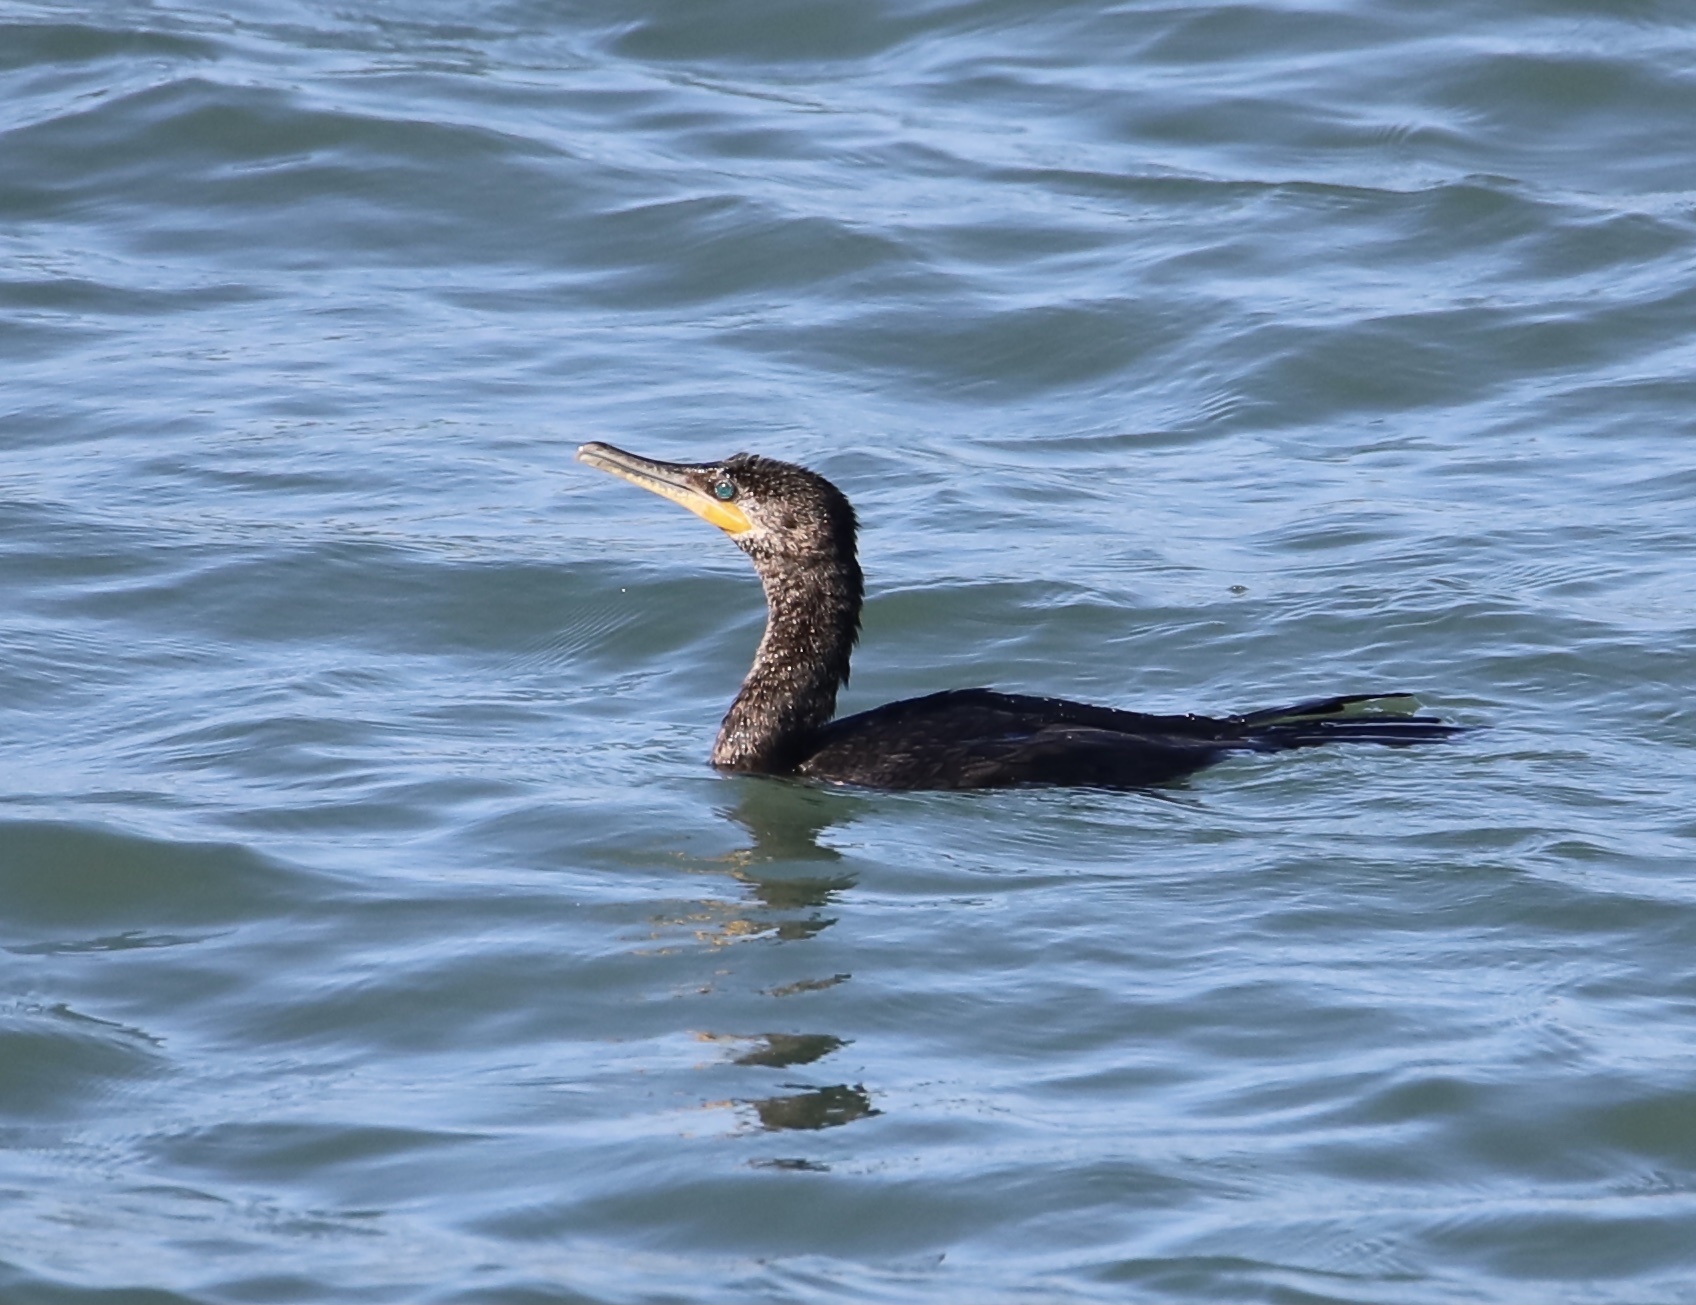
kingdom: Animalia
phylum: Chordata
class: Aves
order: Suliformes
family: Phalacrocoracidae
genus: Phalacrocorax
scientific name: Phalacrocorax brasilianus
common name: Neotropic cormorant
